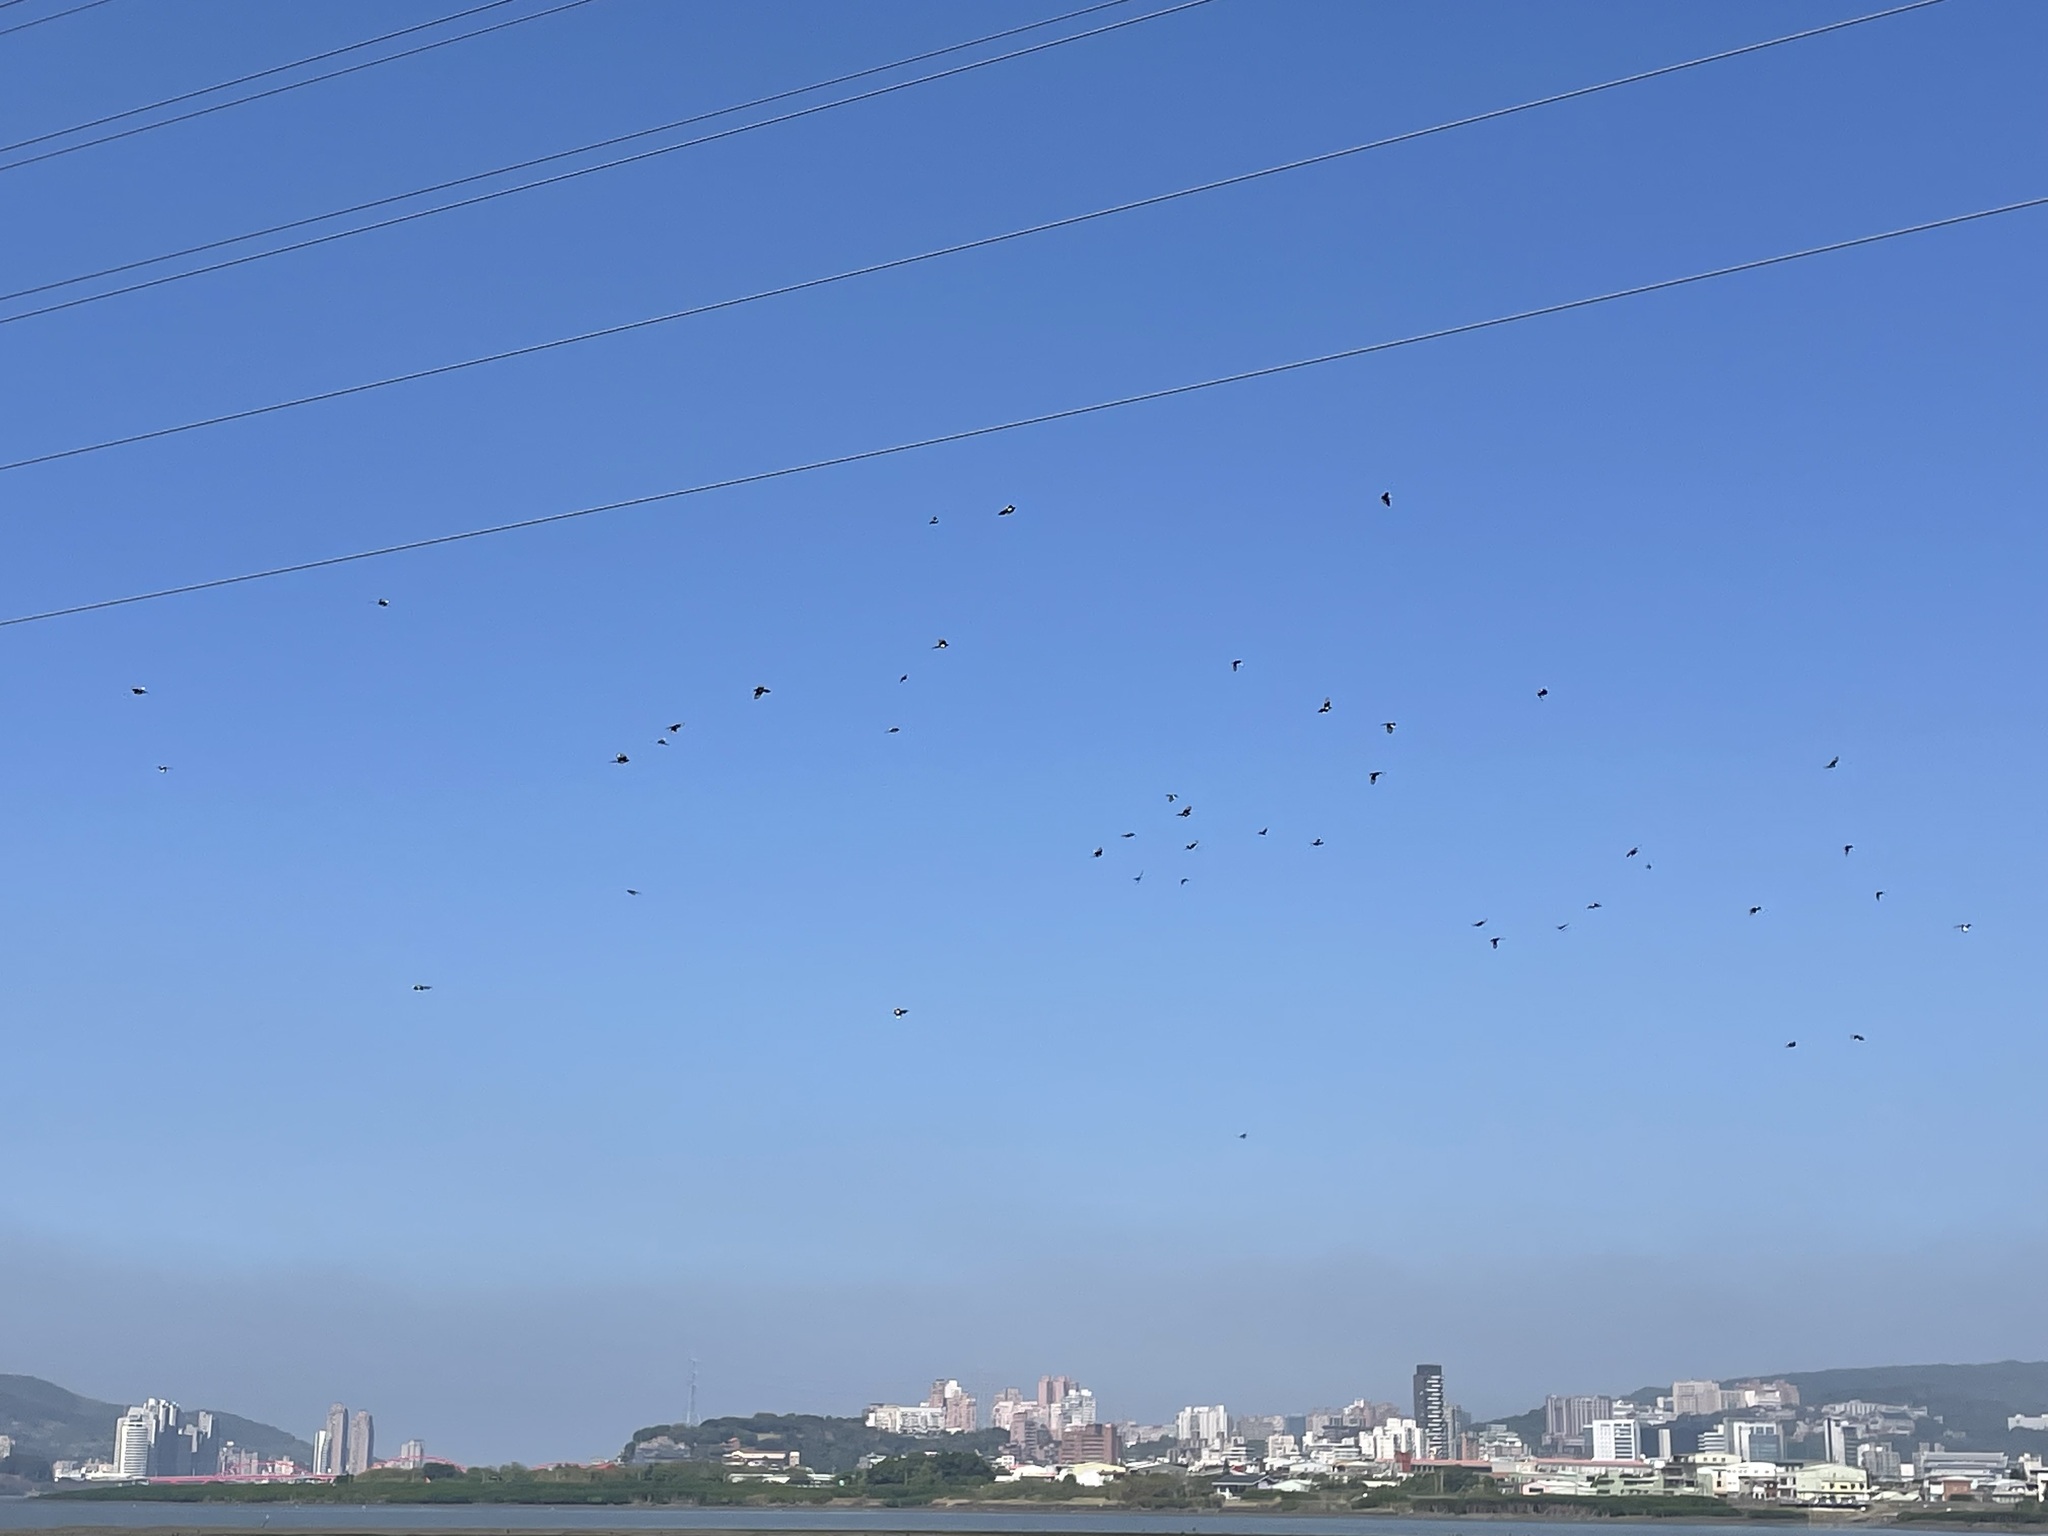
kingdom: Animalia
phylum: Chordata
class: Aves
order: Passeriformes
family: Corvidae
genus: Pica
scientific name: Pica serica
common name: Oriental magpie
